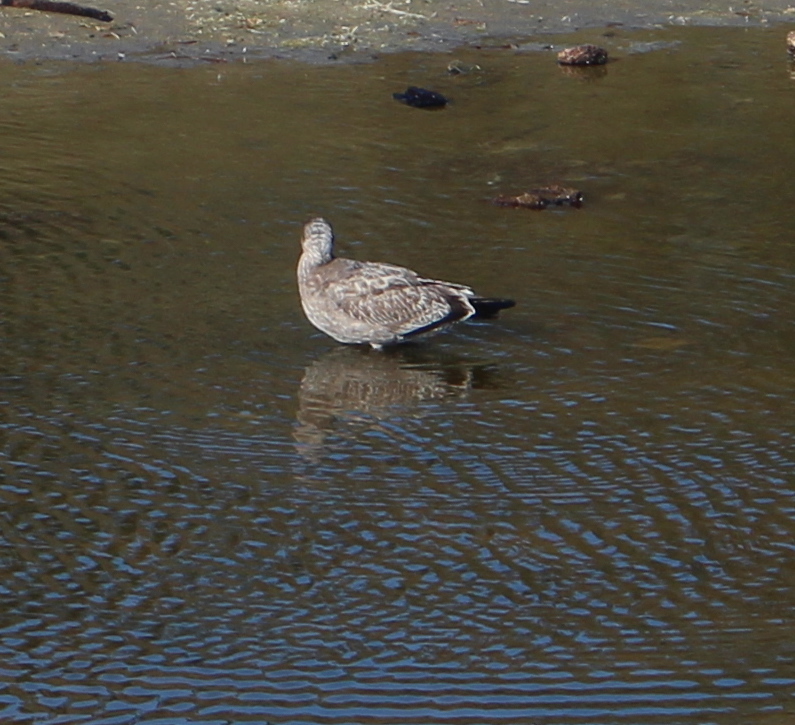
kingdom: Animalia
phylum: Chordata
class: Aves
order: Charadriiformes
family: Laridae
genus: Larus
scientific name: Larus occidentalis
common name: Western gull
